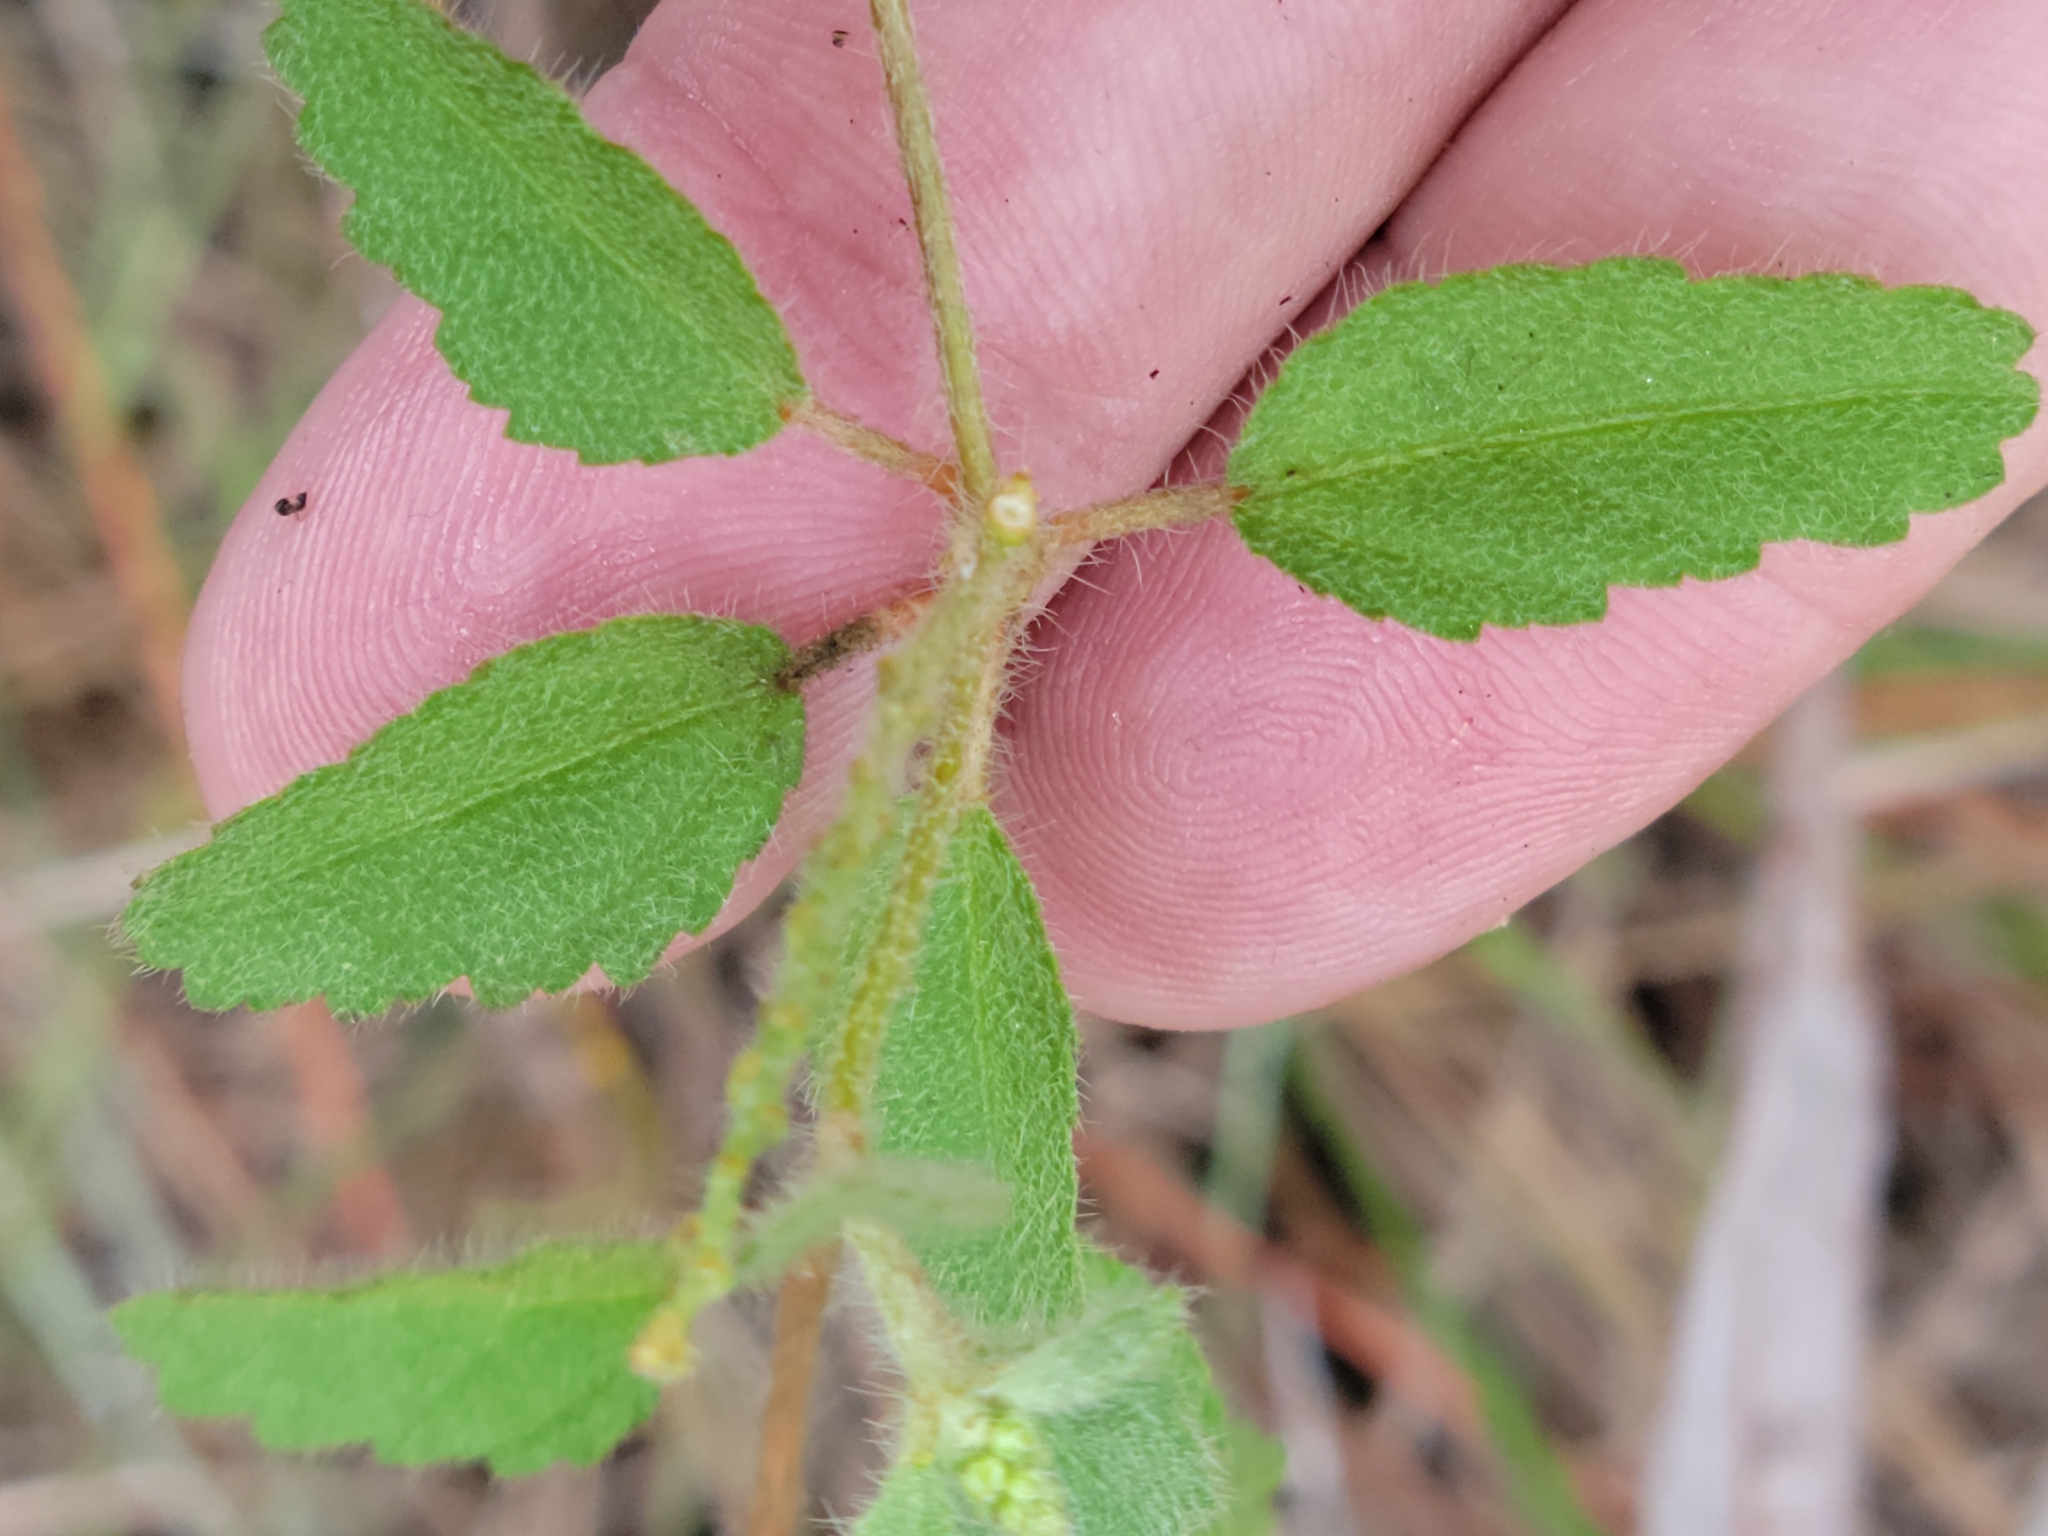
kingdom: Plantae
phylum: Tracheophyta
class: Magnoliopsida
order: Malpighiales
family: Euphorbiaceae
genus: Croton
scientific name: Croton glandulosus
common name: Tropic croton
